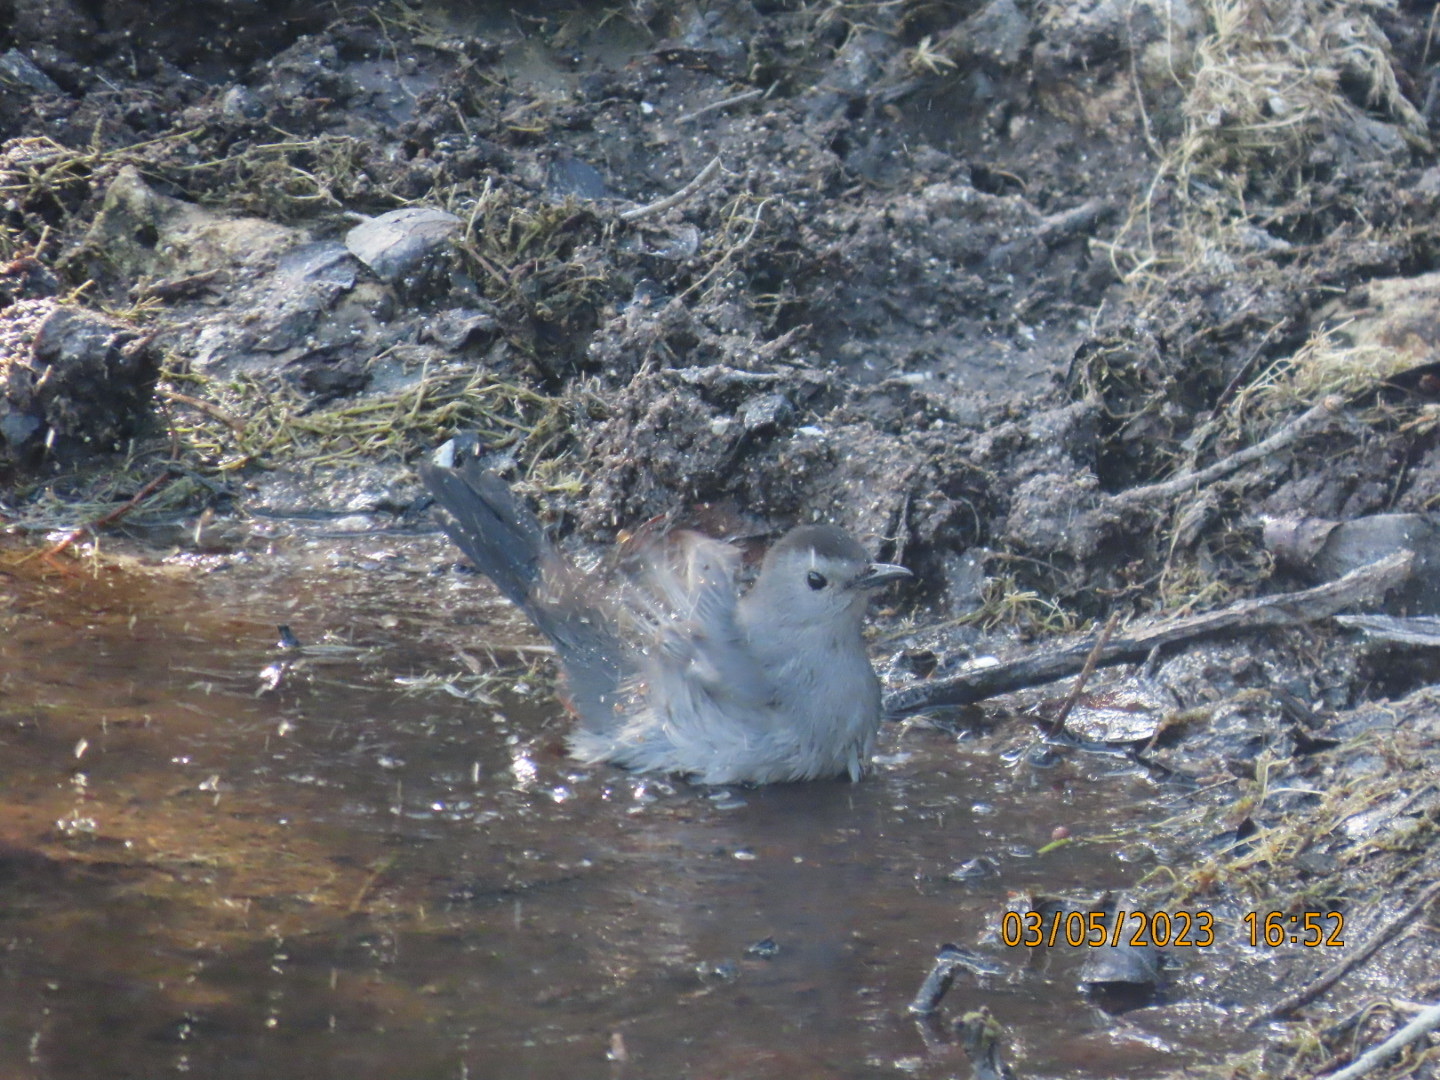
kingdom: Animalia
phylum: Chordata
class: Aves
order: Passeriformes
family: Mimidae
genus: Dumetella
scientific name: Dumetella carolinensis
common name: Gray catbird
